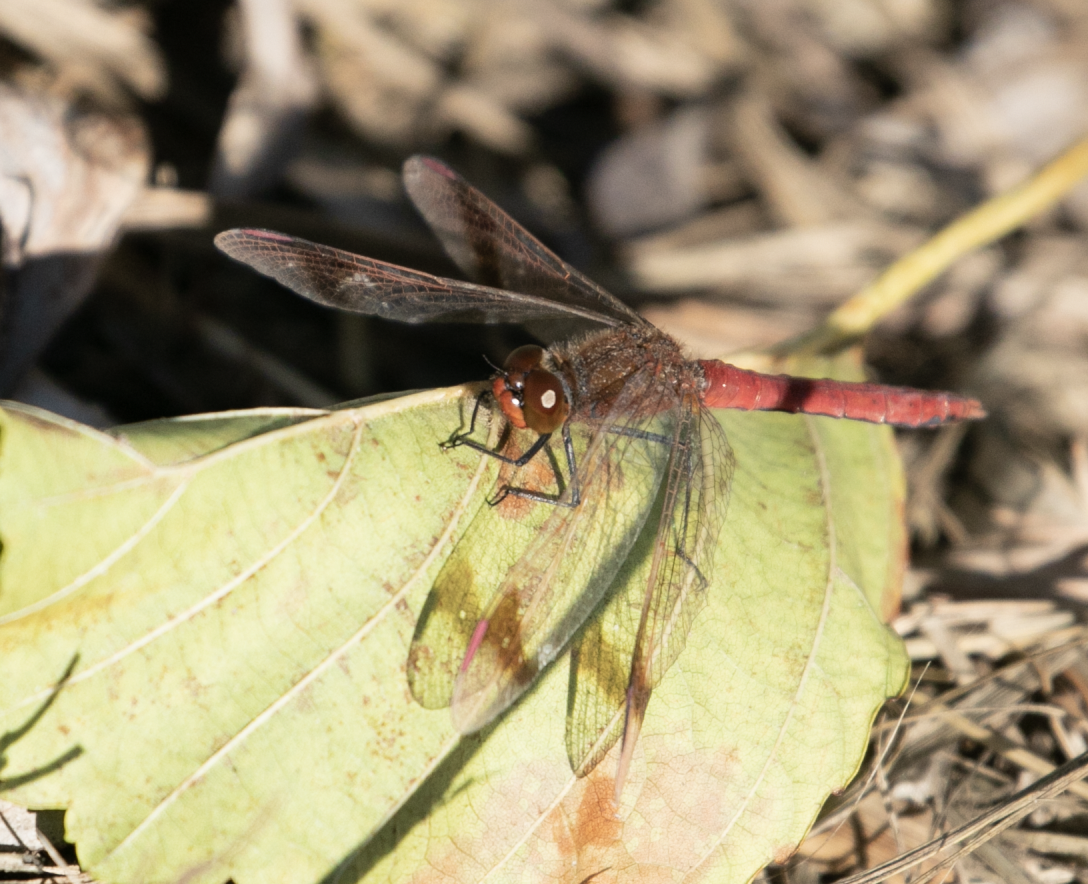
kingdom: Animalia
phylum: Arthropoda
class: Insecta
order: Odonata
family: Libellulidae
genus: Sympetrum
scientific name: Sympetrum pedemontanum
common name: Banded darter
